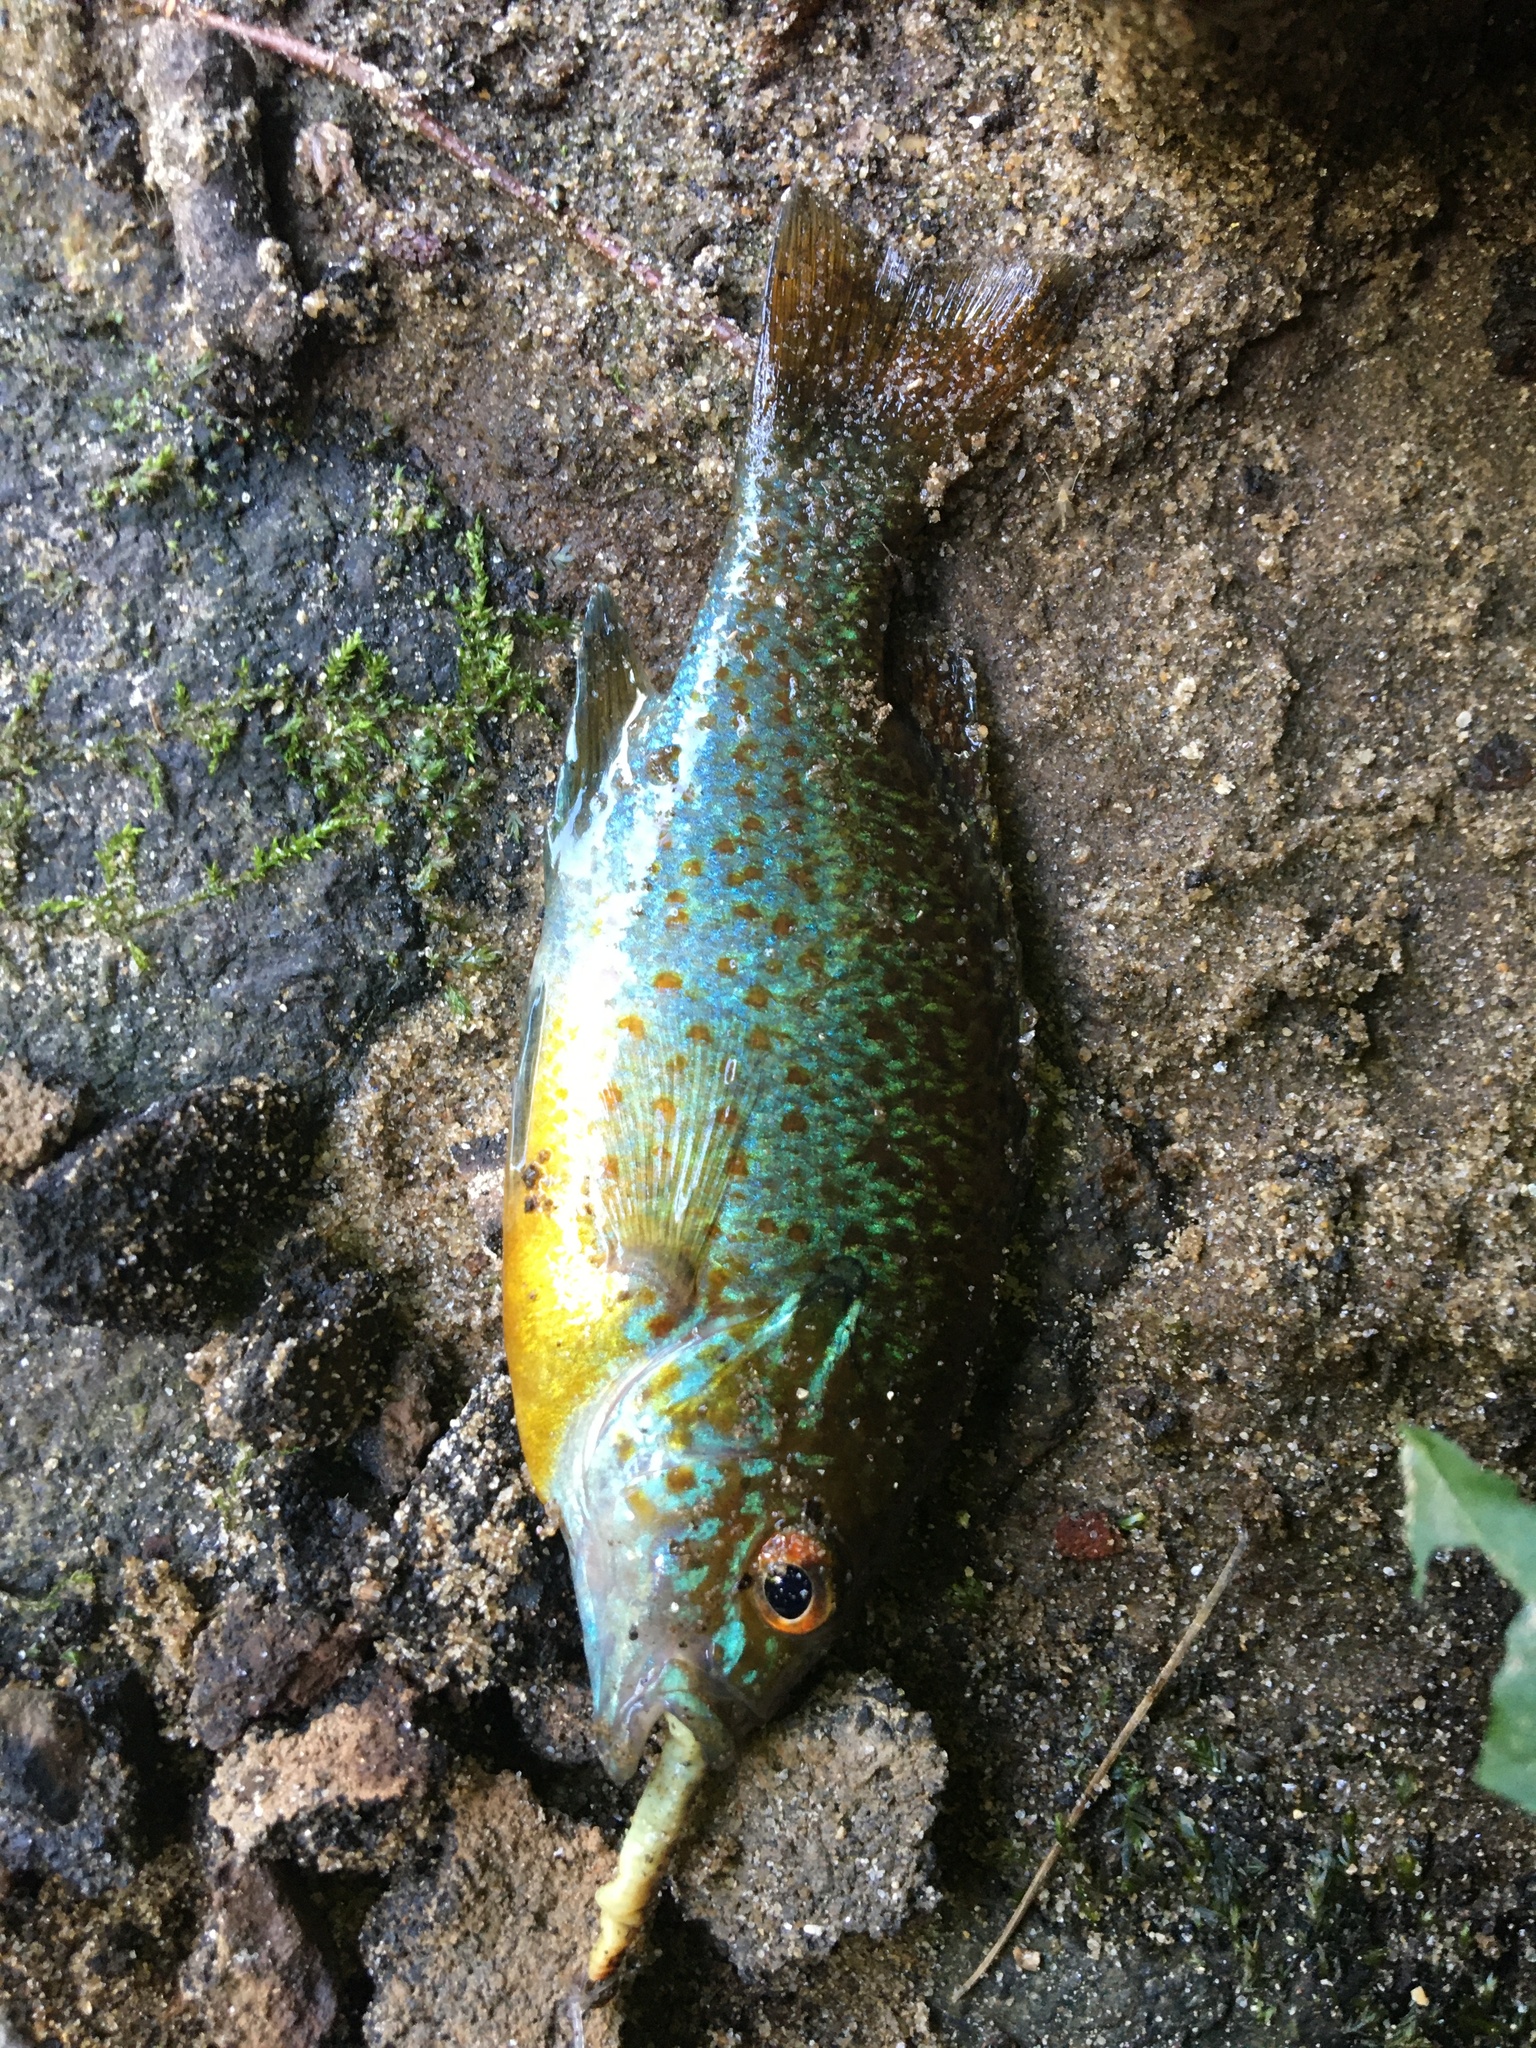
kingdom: Animalia
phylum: Chordata
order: Perciformes
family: Centrarchidae
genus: Lepomis
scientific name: Lepomis auritus
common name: Redbreast sunfish
